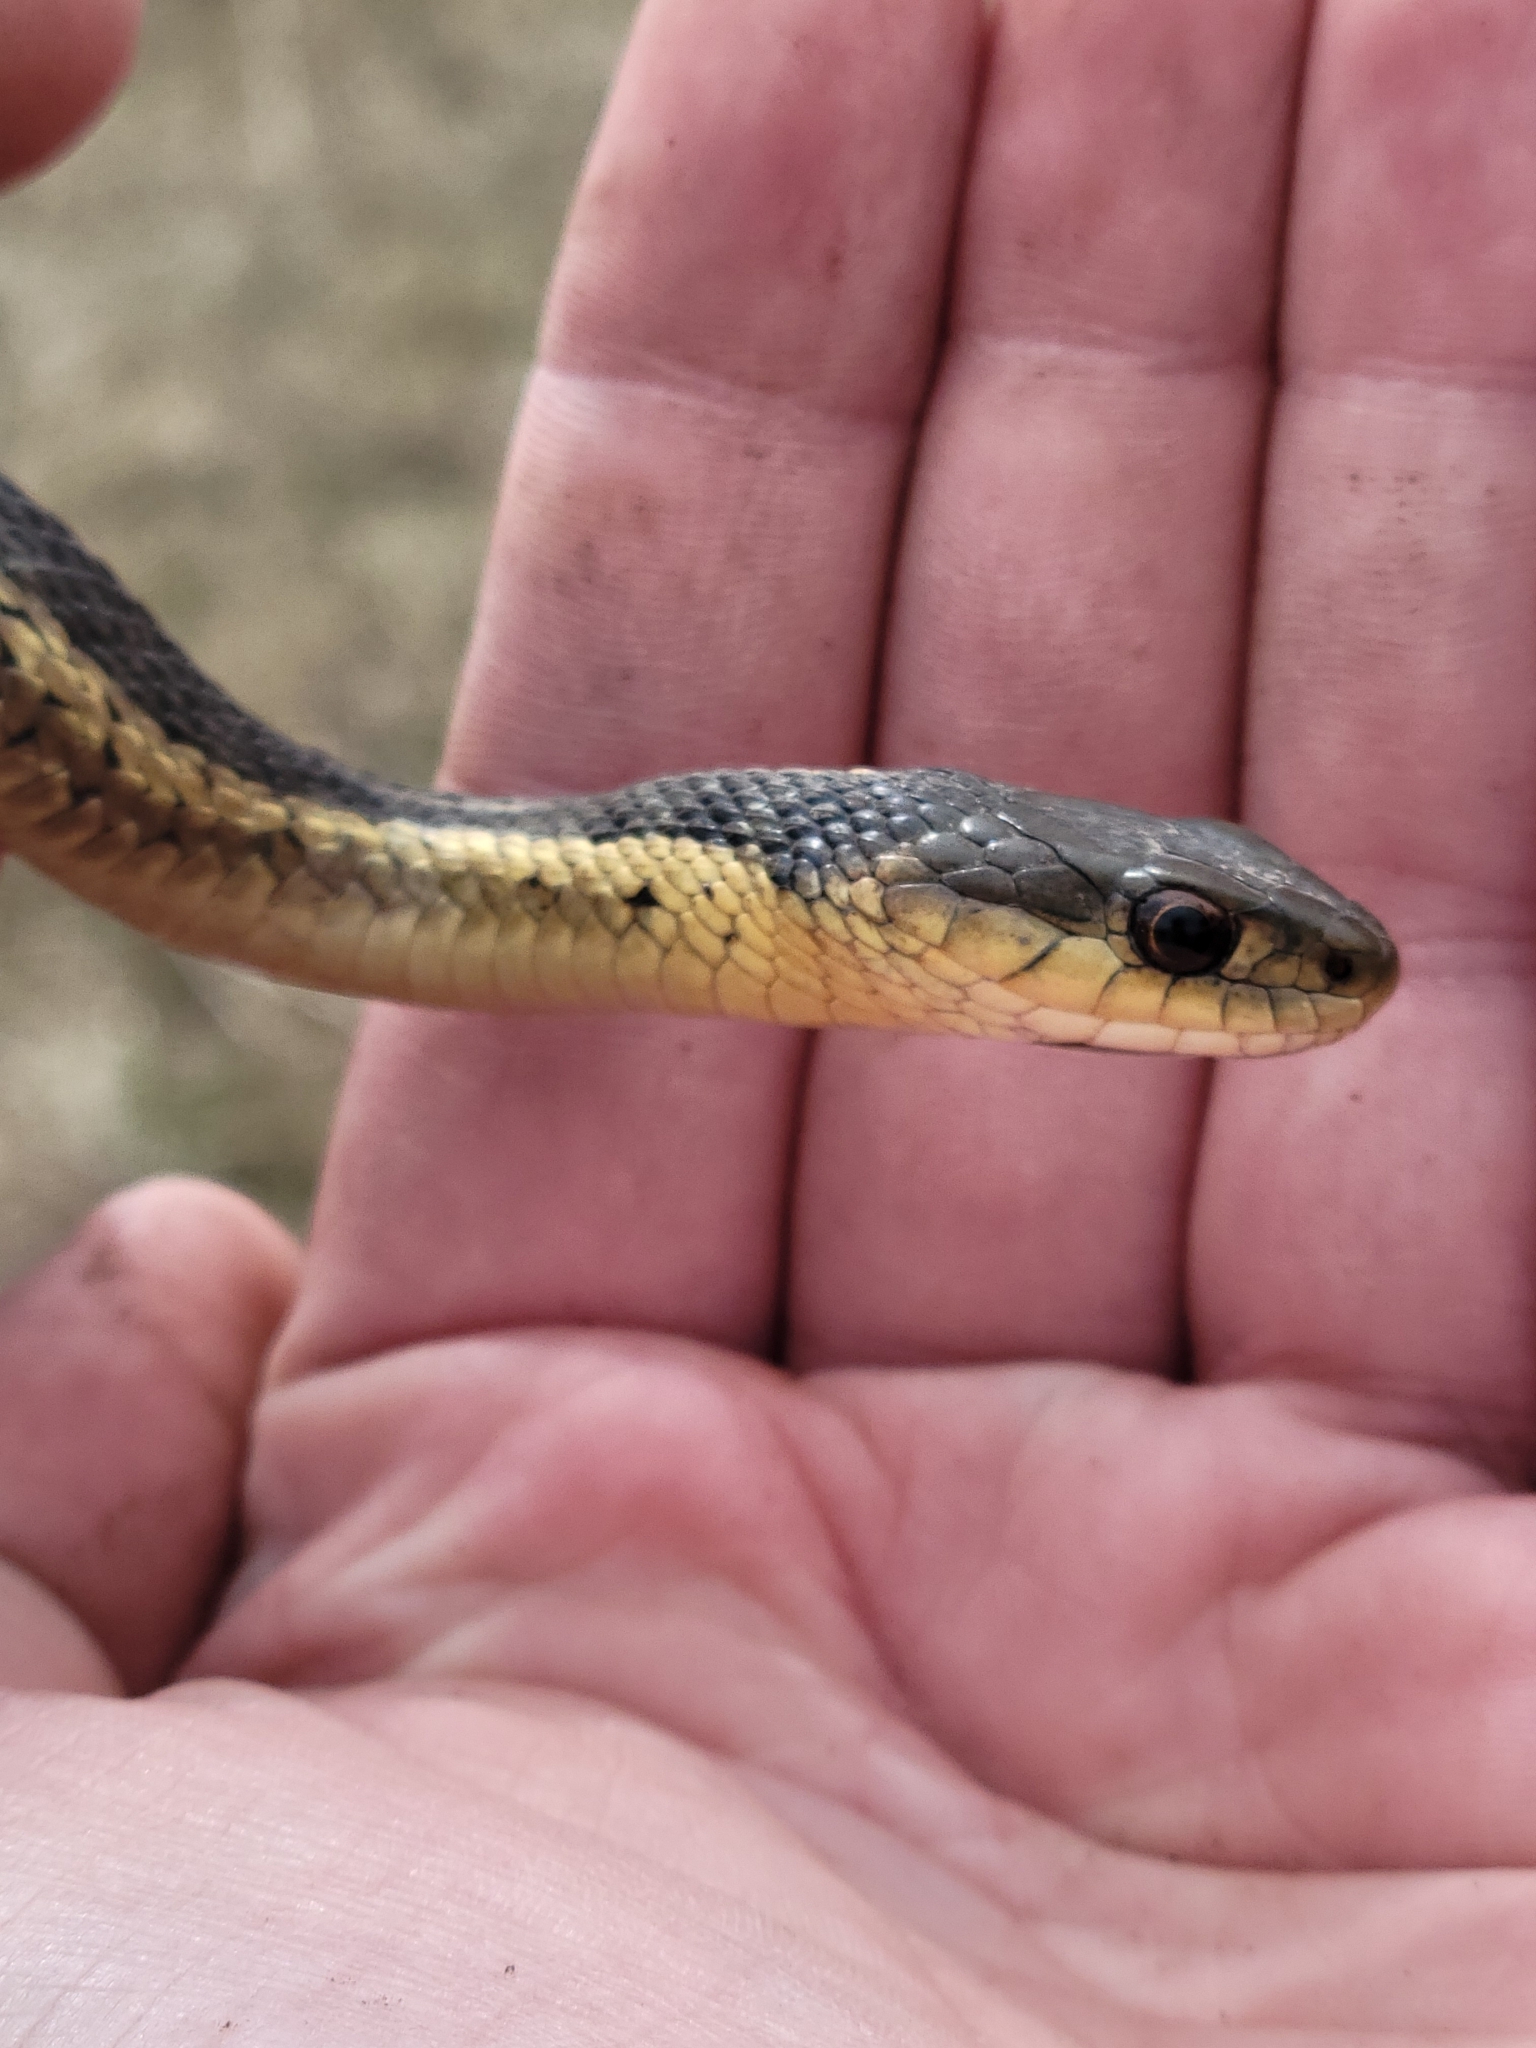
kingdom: Animalia
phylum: Chordata
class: Squamata
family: Colubridae
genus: Thamnophis
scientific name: Thamnophis sirtalis
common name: Common garter snake
